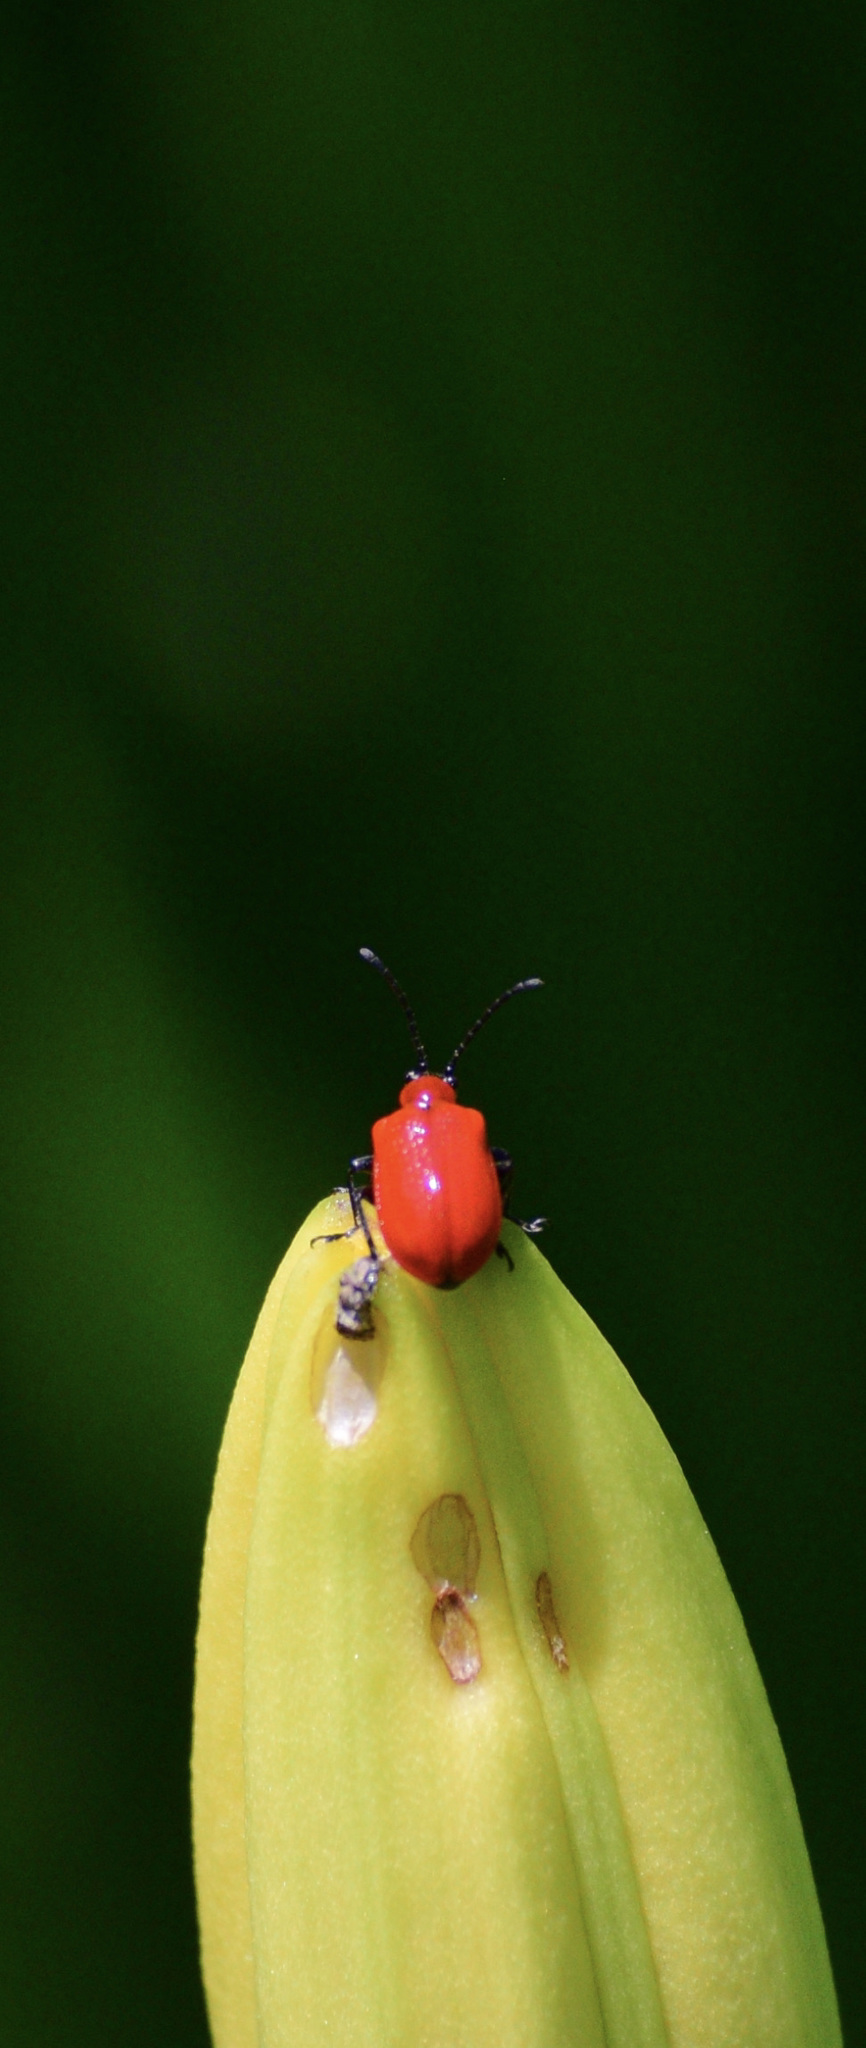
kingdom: Animalia
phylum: Arthropoda
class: Insecta
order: Coleoptera
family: Chrysomelidae
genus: Lilioceris
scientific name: Lilioceris lilii
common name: Lily beetle
